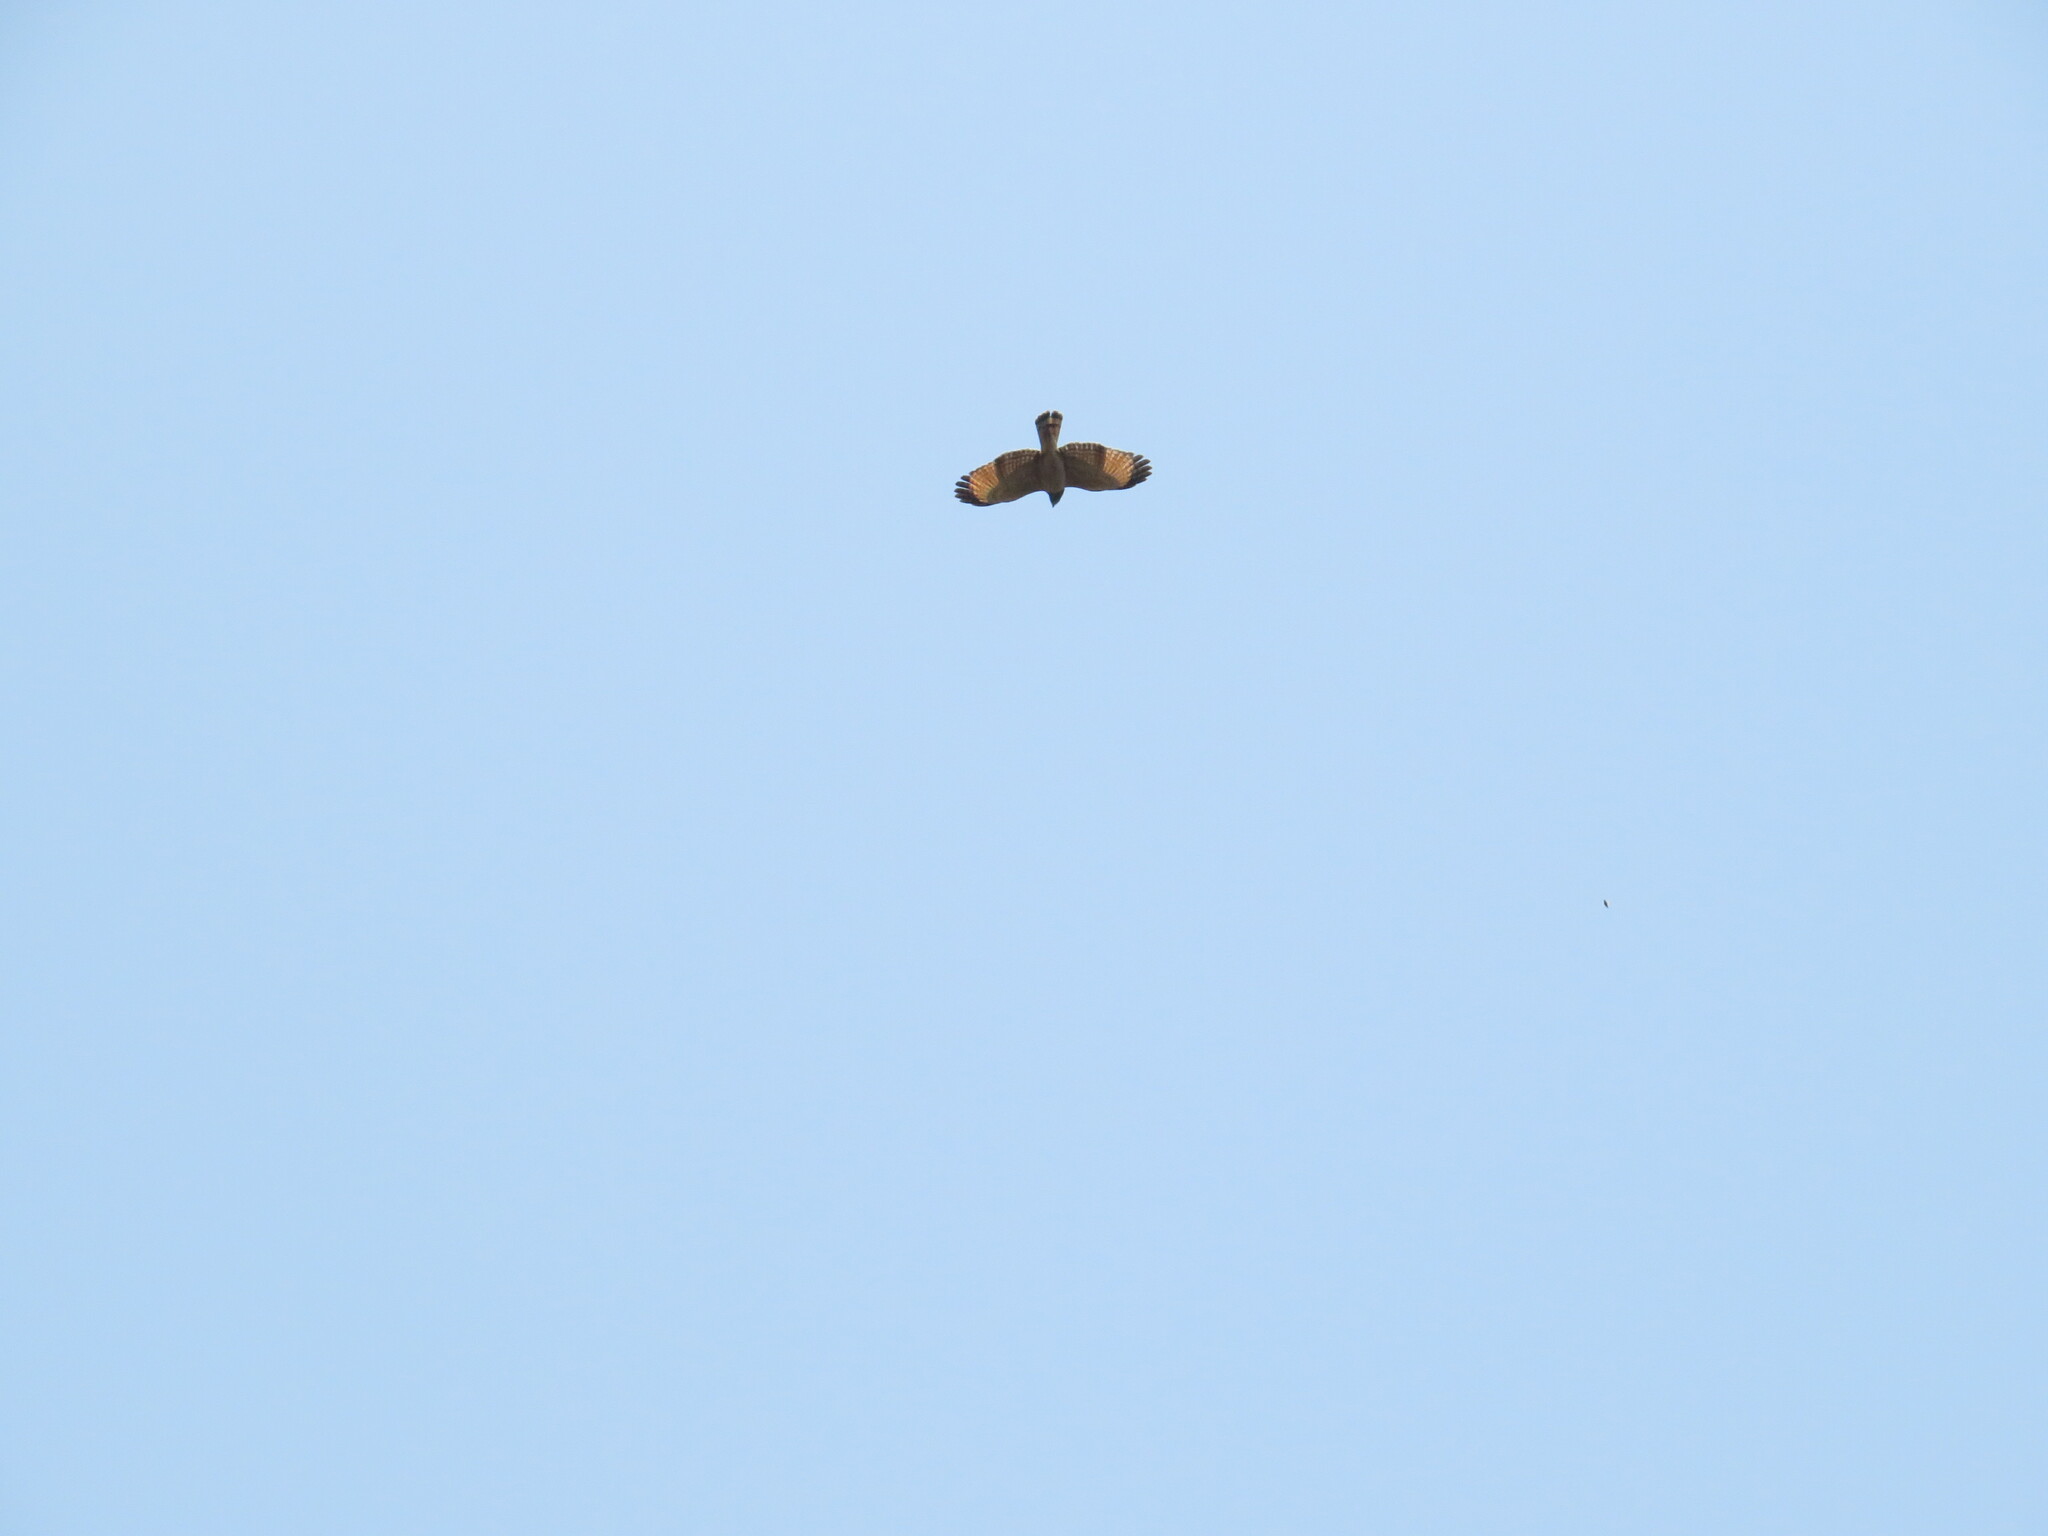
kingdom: Animalia
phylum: Chordata
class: Aves
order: Accipitriformes
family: Accipitridae
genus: Rupornis
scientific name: Rupornis magnirostris
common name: Roadside hawk
